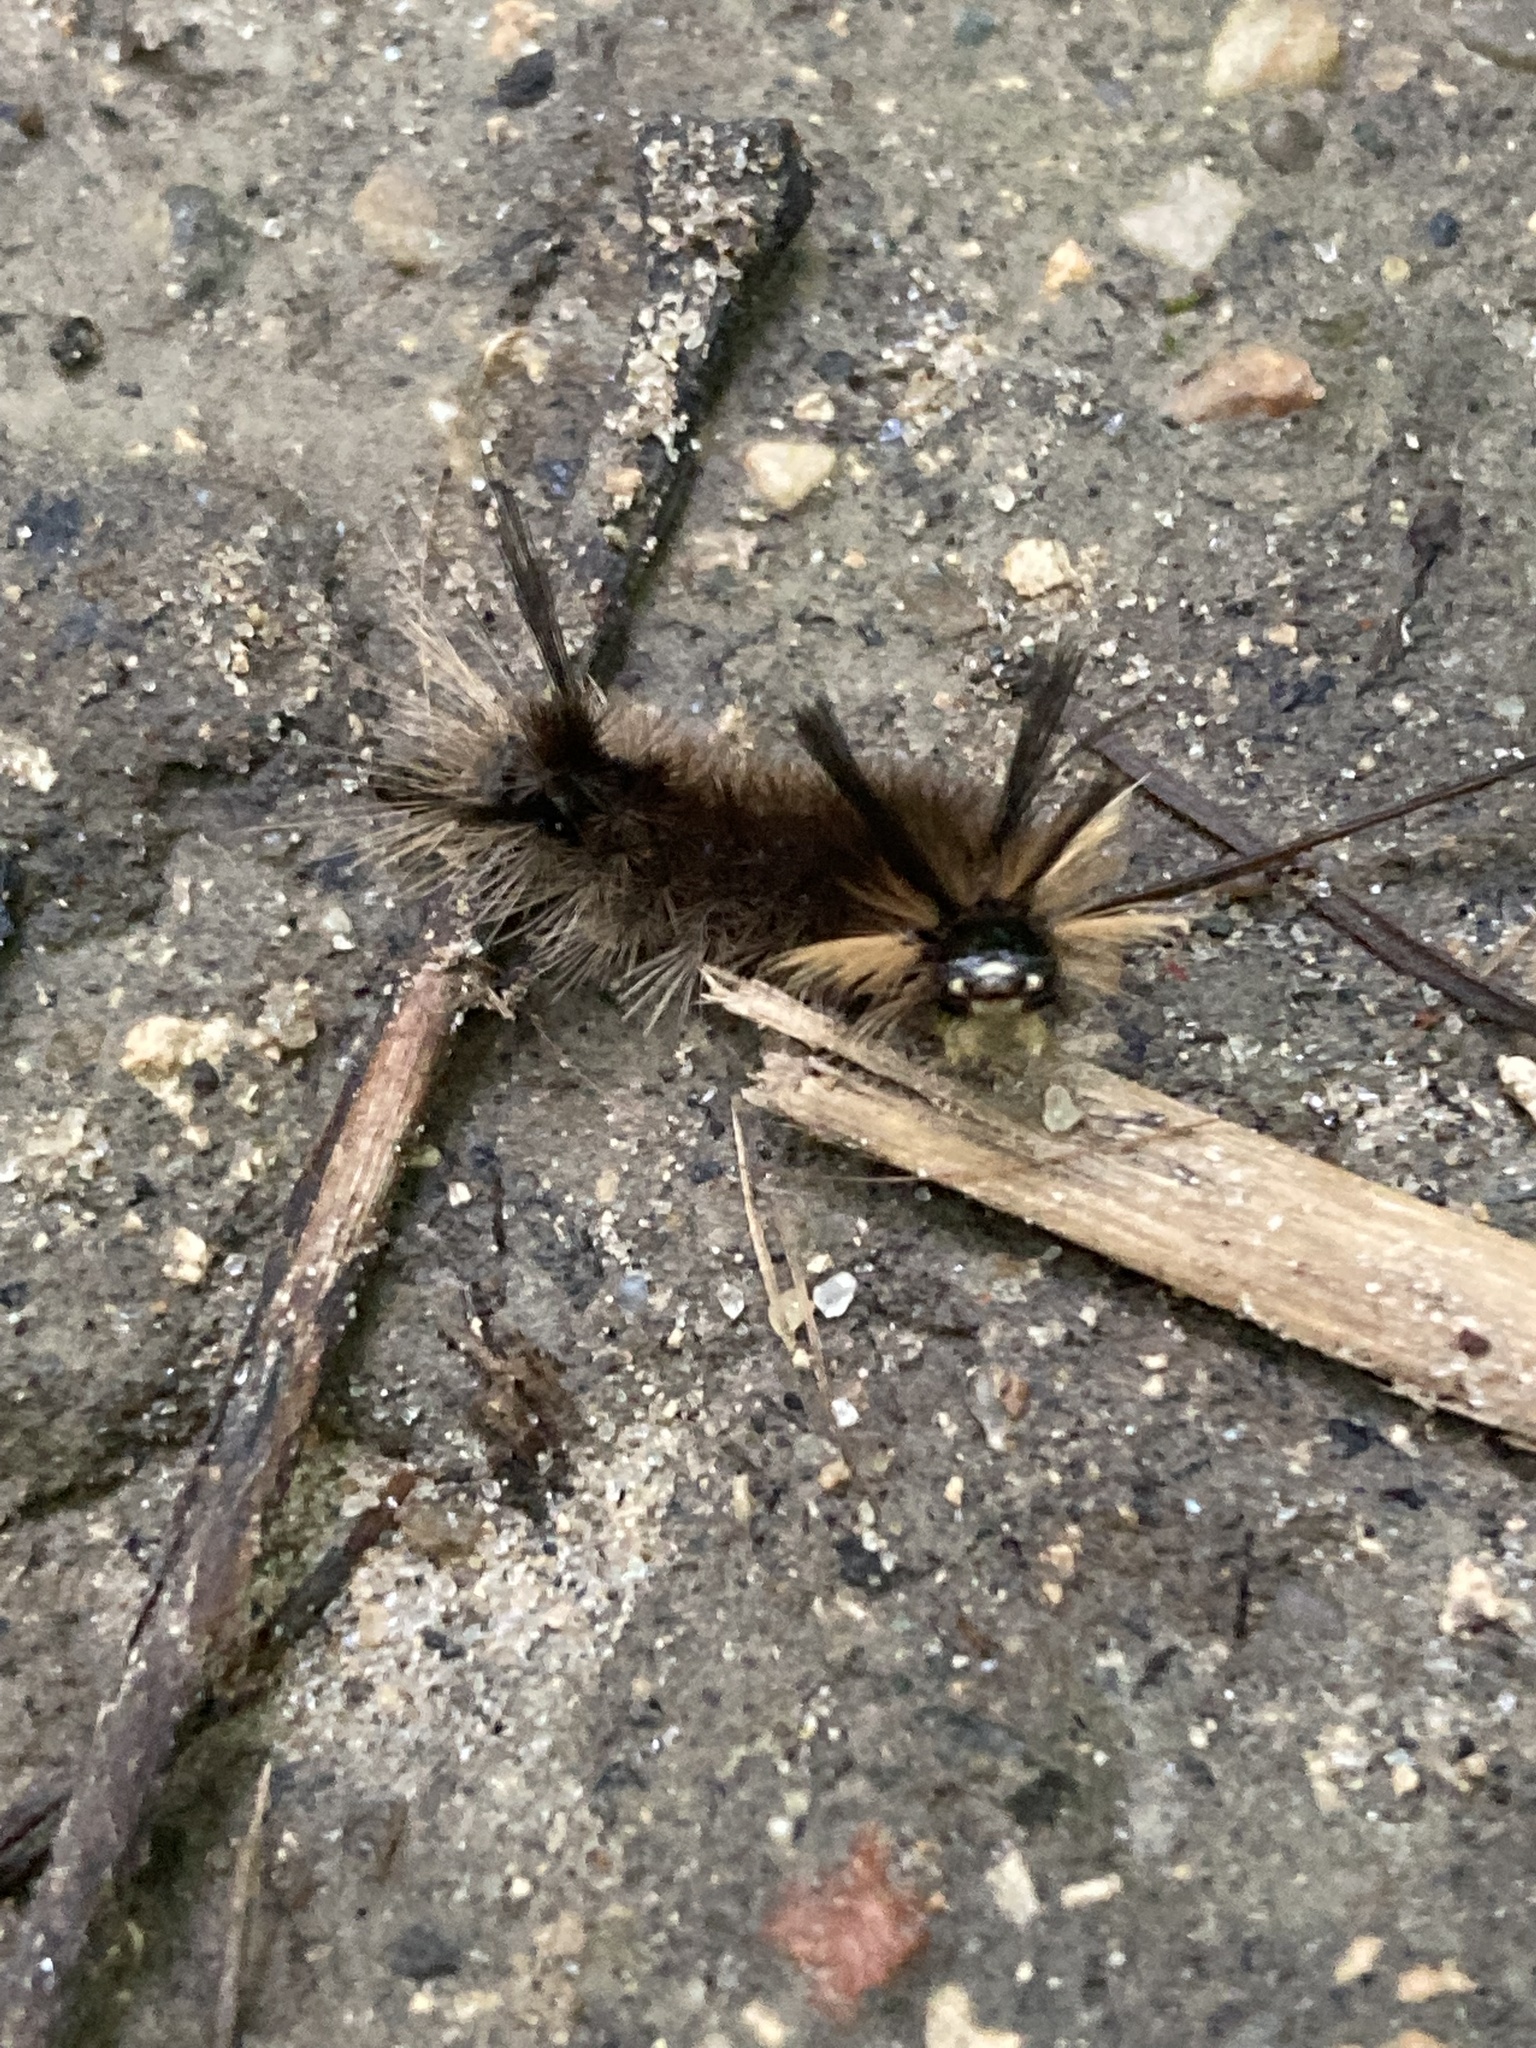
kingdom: Animalia
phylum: Arthropoda
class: Insecta
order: Lepidoptera
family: Erebidae
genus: Halysidota
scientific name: Halysidota tessellaris
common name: Banded tussock moth
